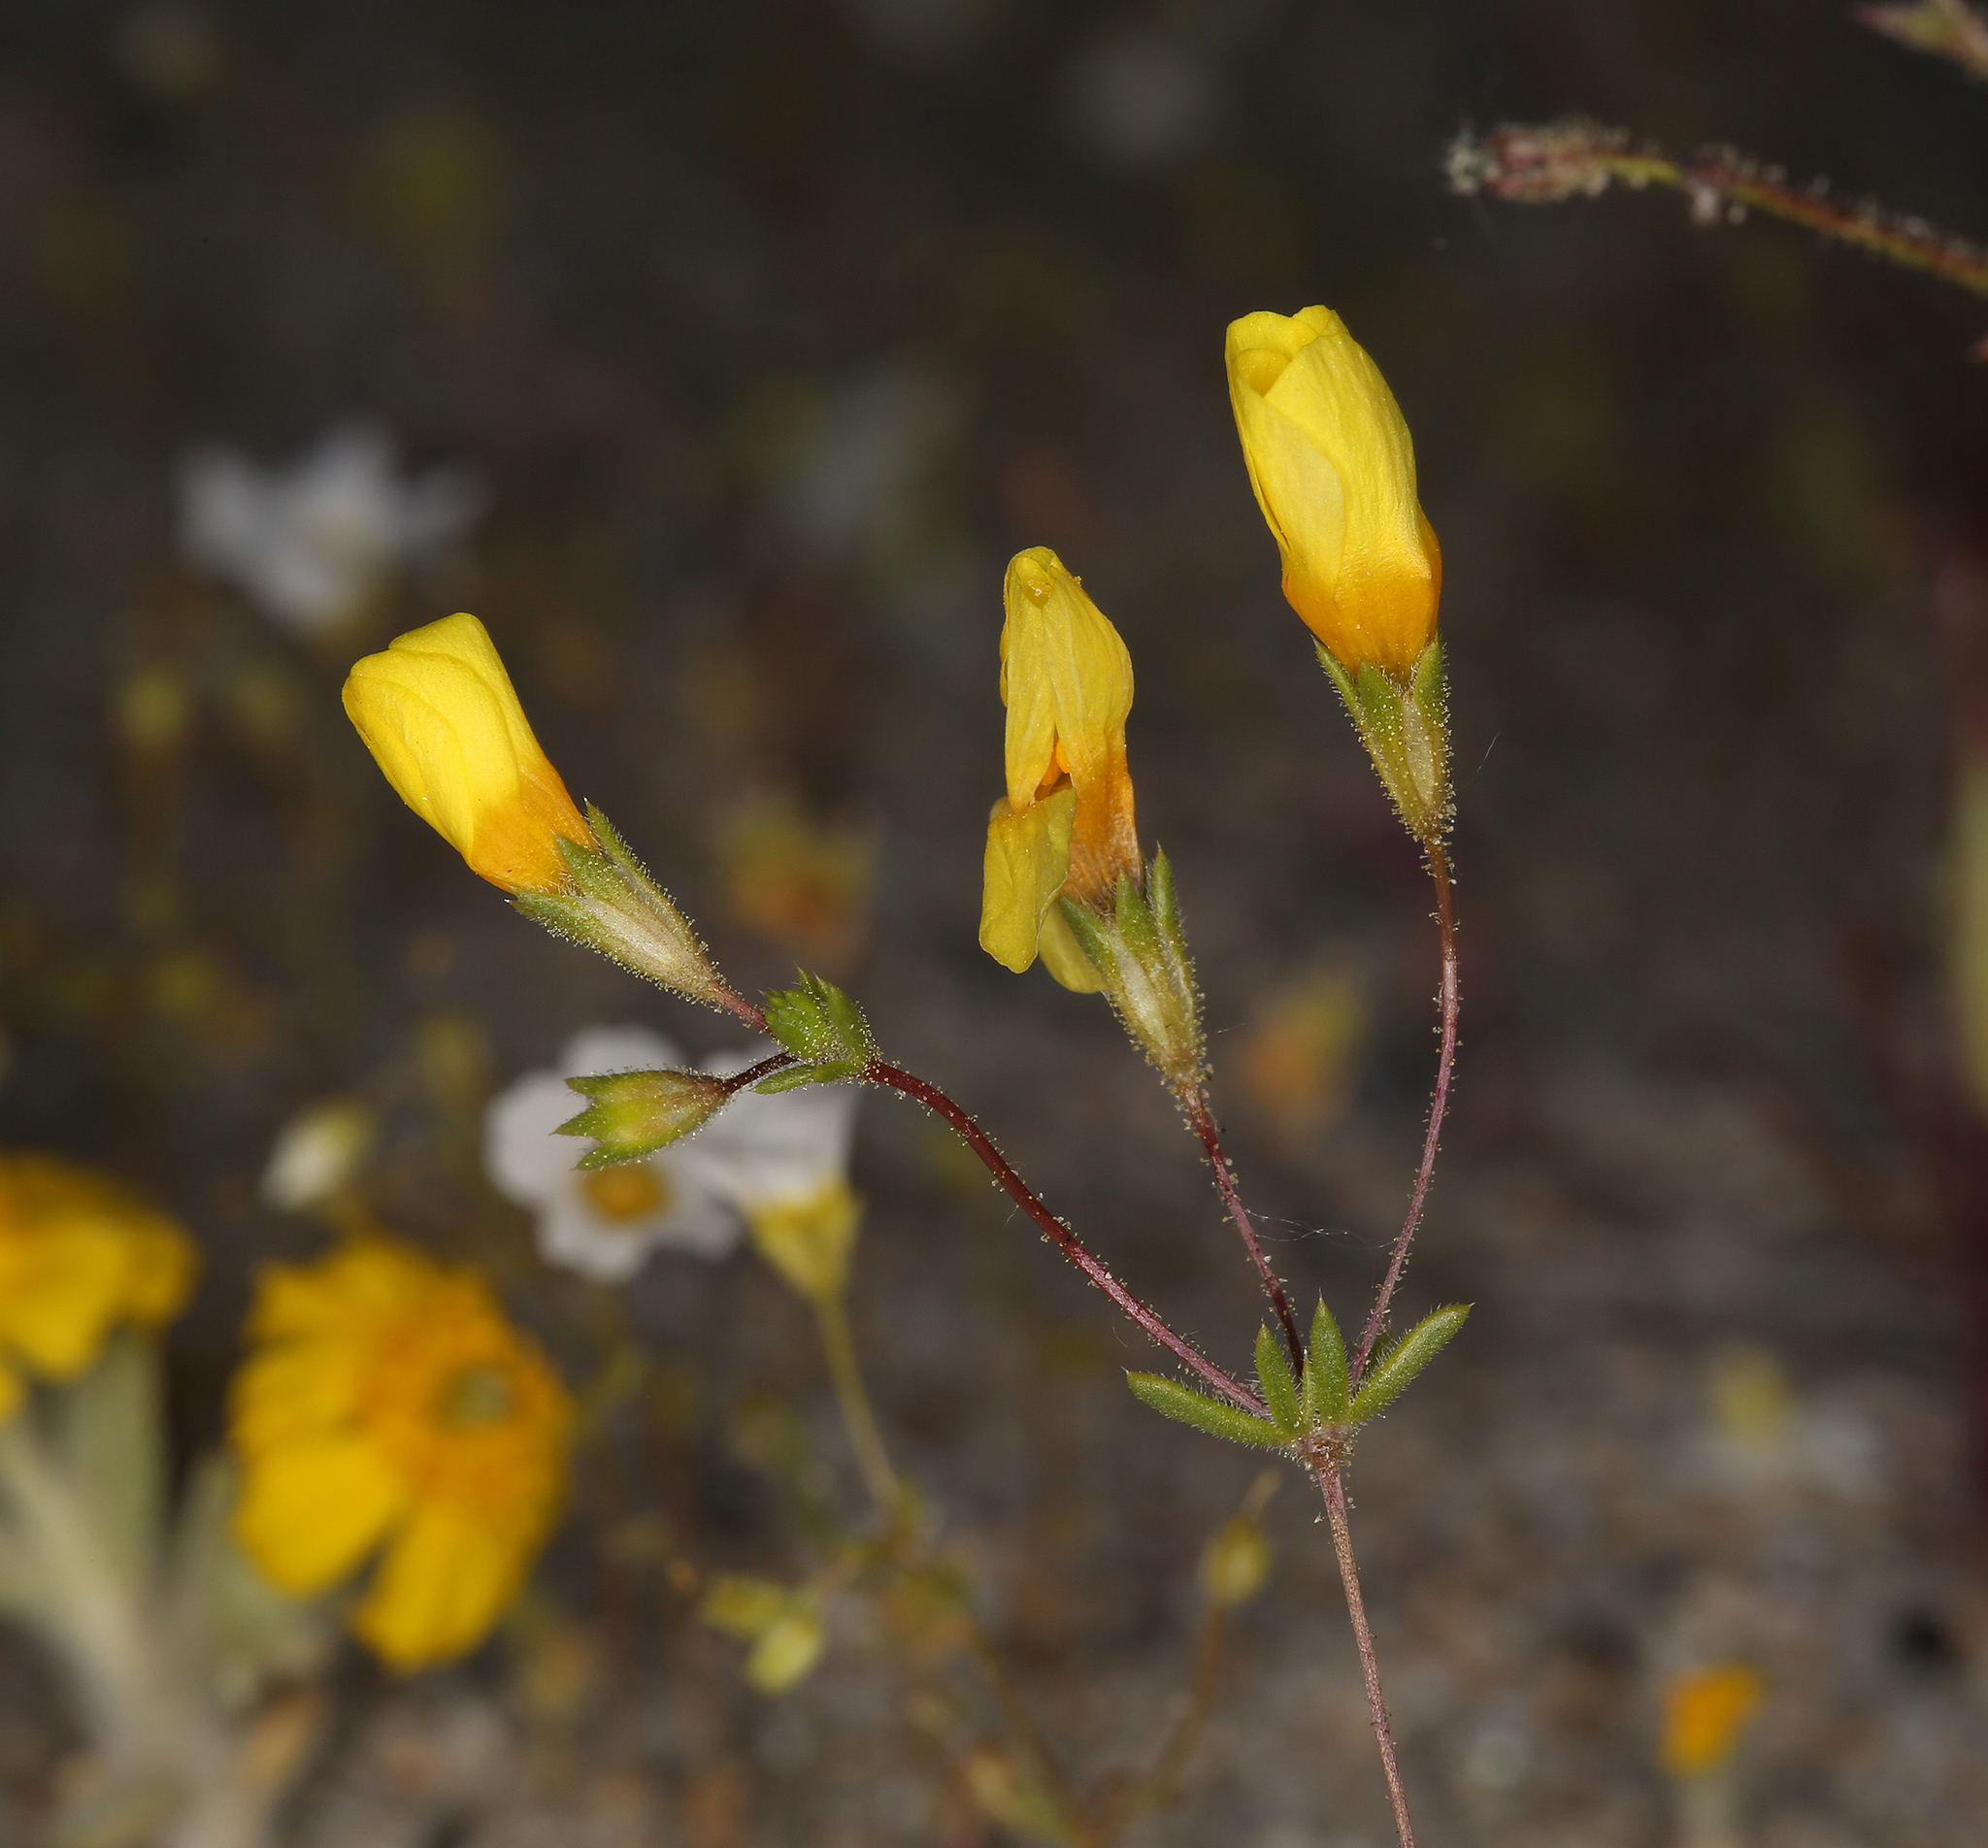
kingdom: Plantae
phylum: Tracheophyta
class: Magnoliopsida
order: Ericales
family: Polemoniaceae
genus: Leptosiphon
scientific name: Leptosiphon chrysanthus
